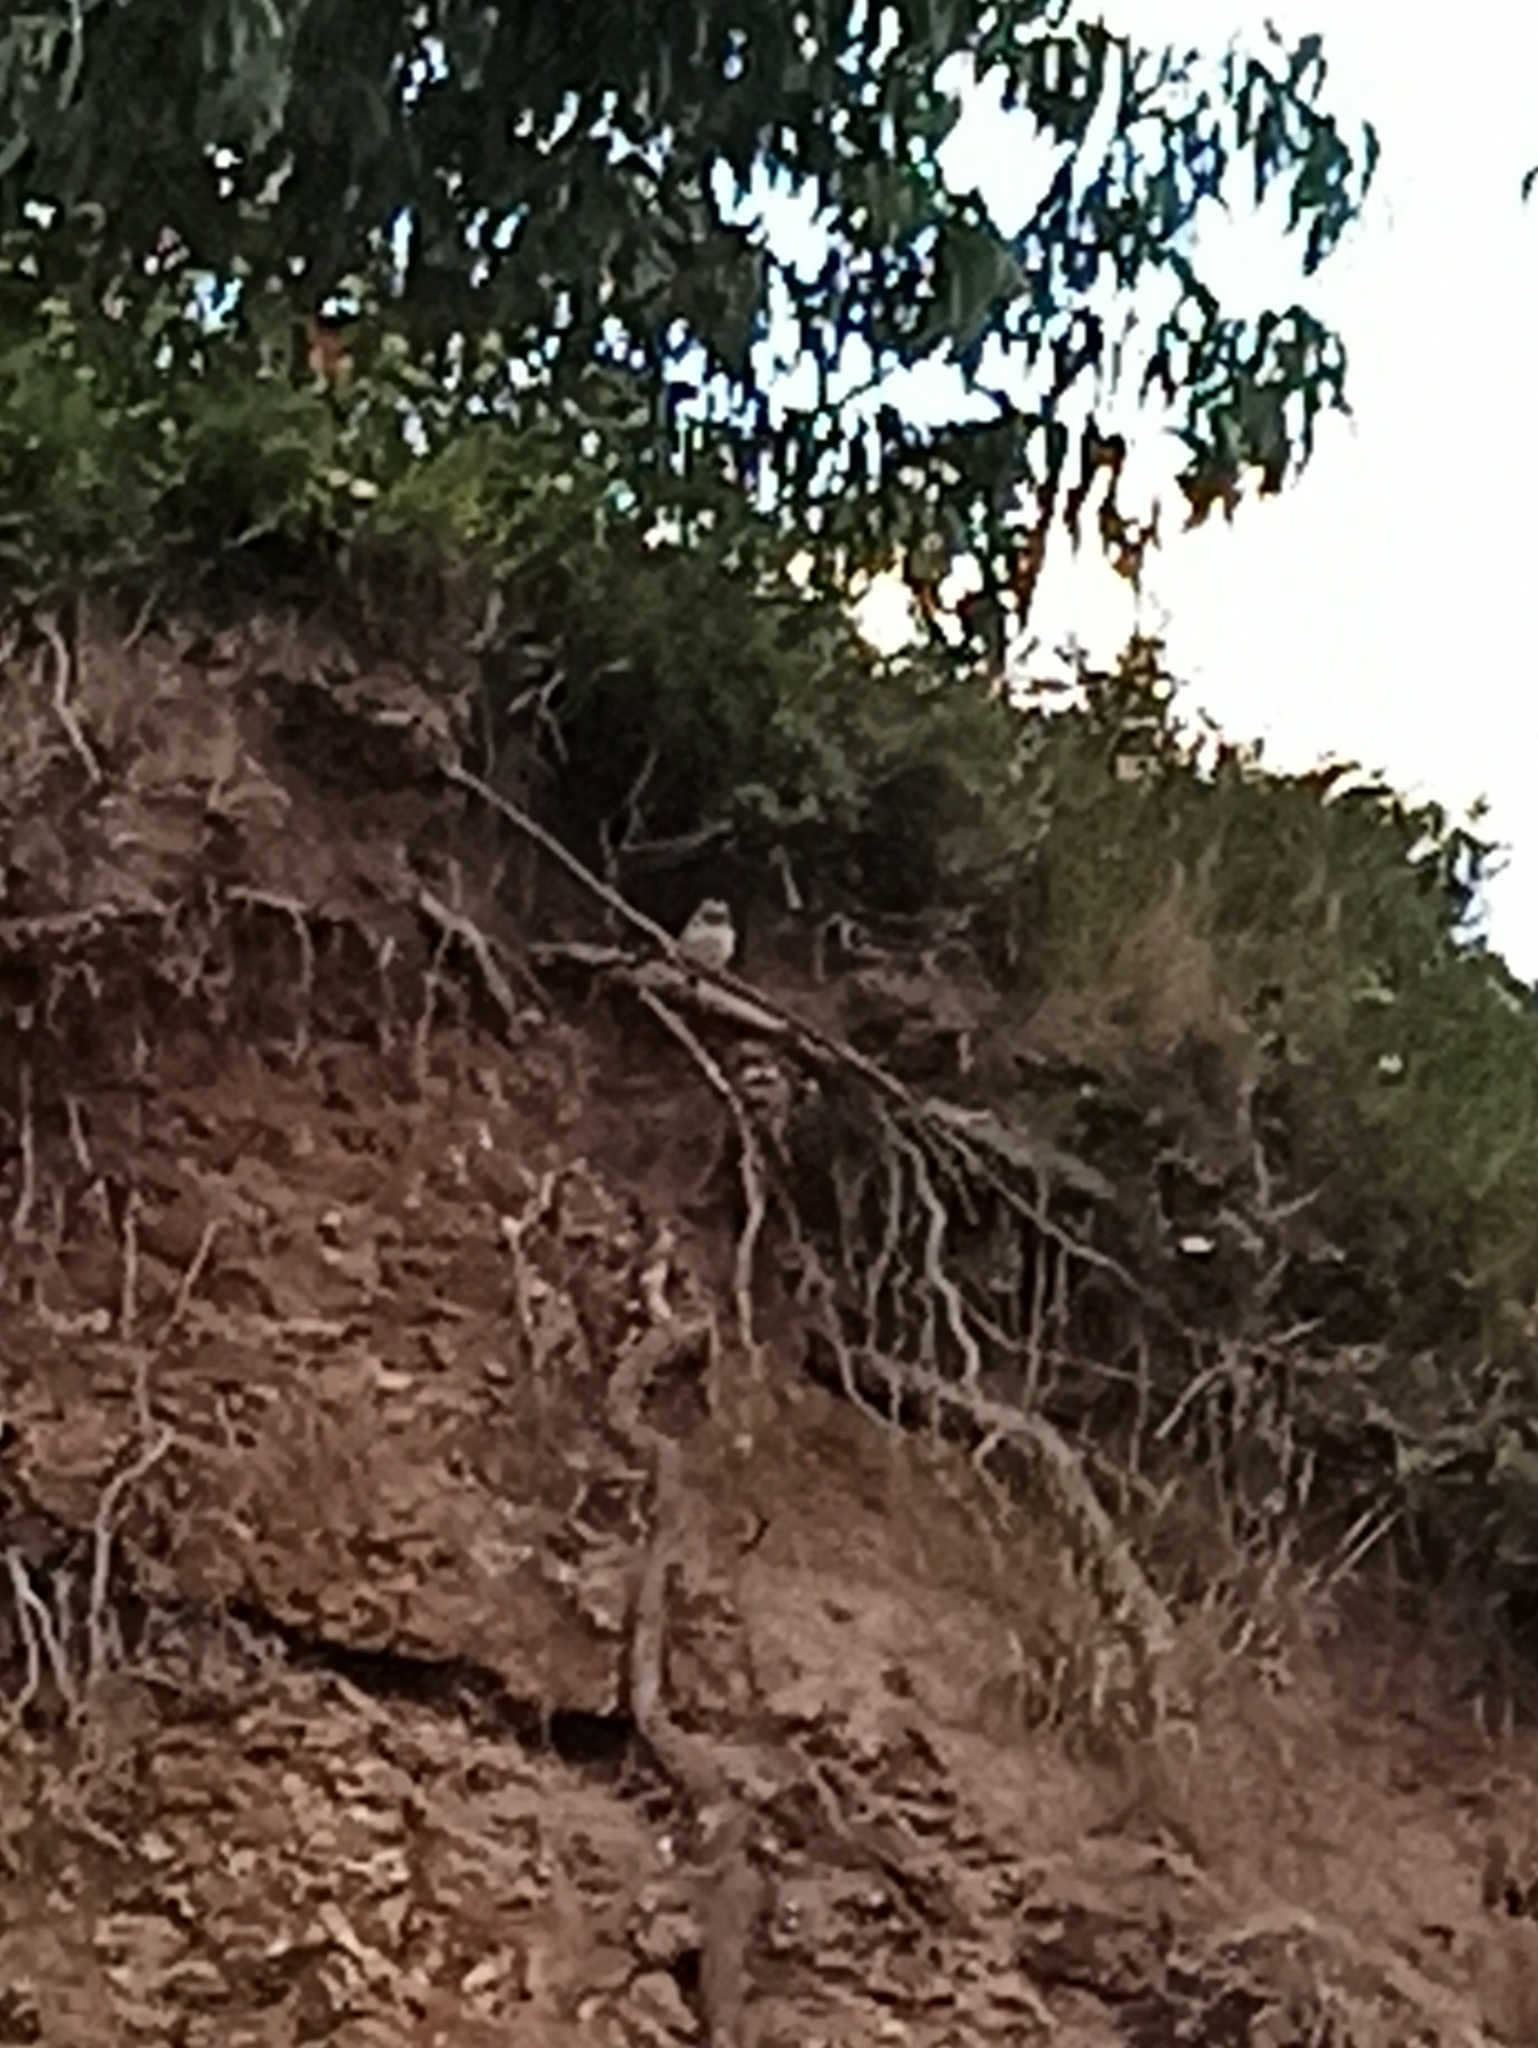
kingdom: Animalia
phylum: Chordata
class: Aves
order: Strigiformes
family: Strigidae
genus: Athene
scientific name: Athene noctua
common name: Little owl
